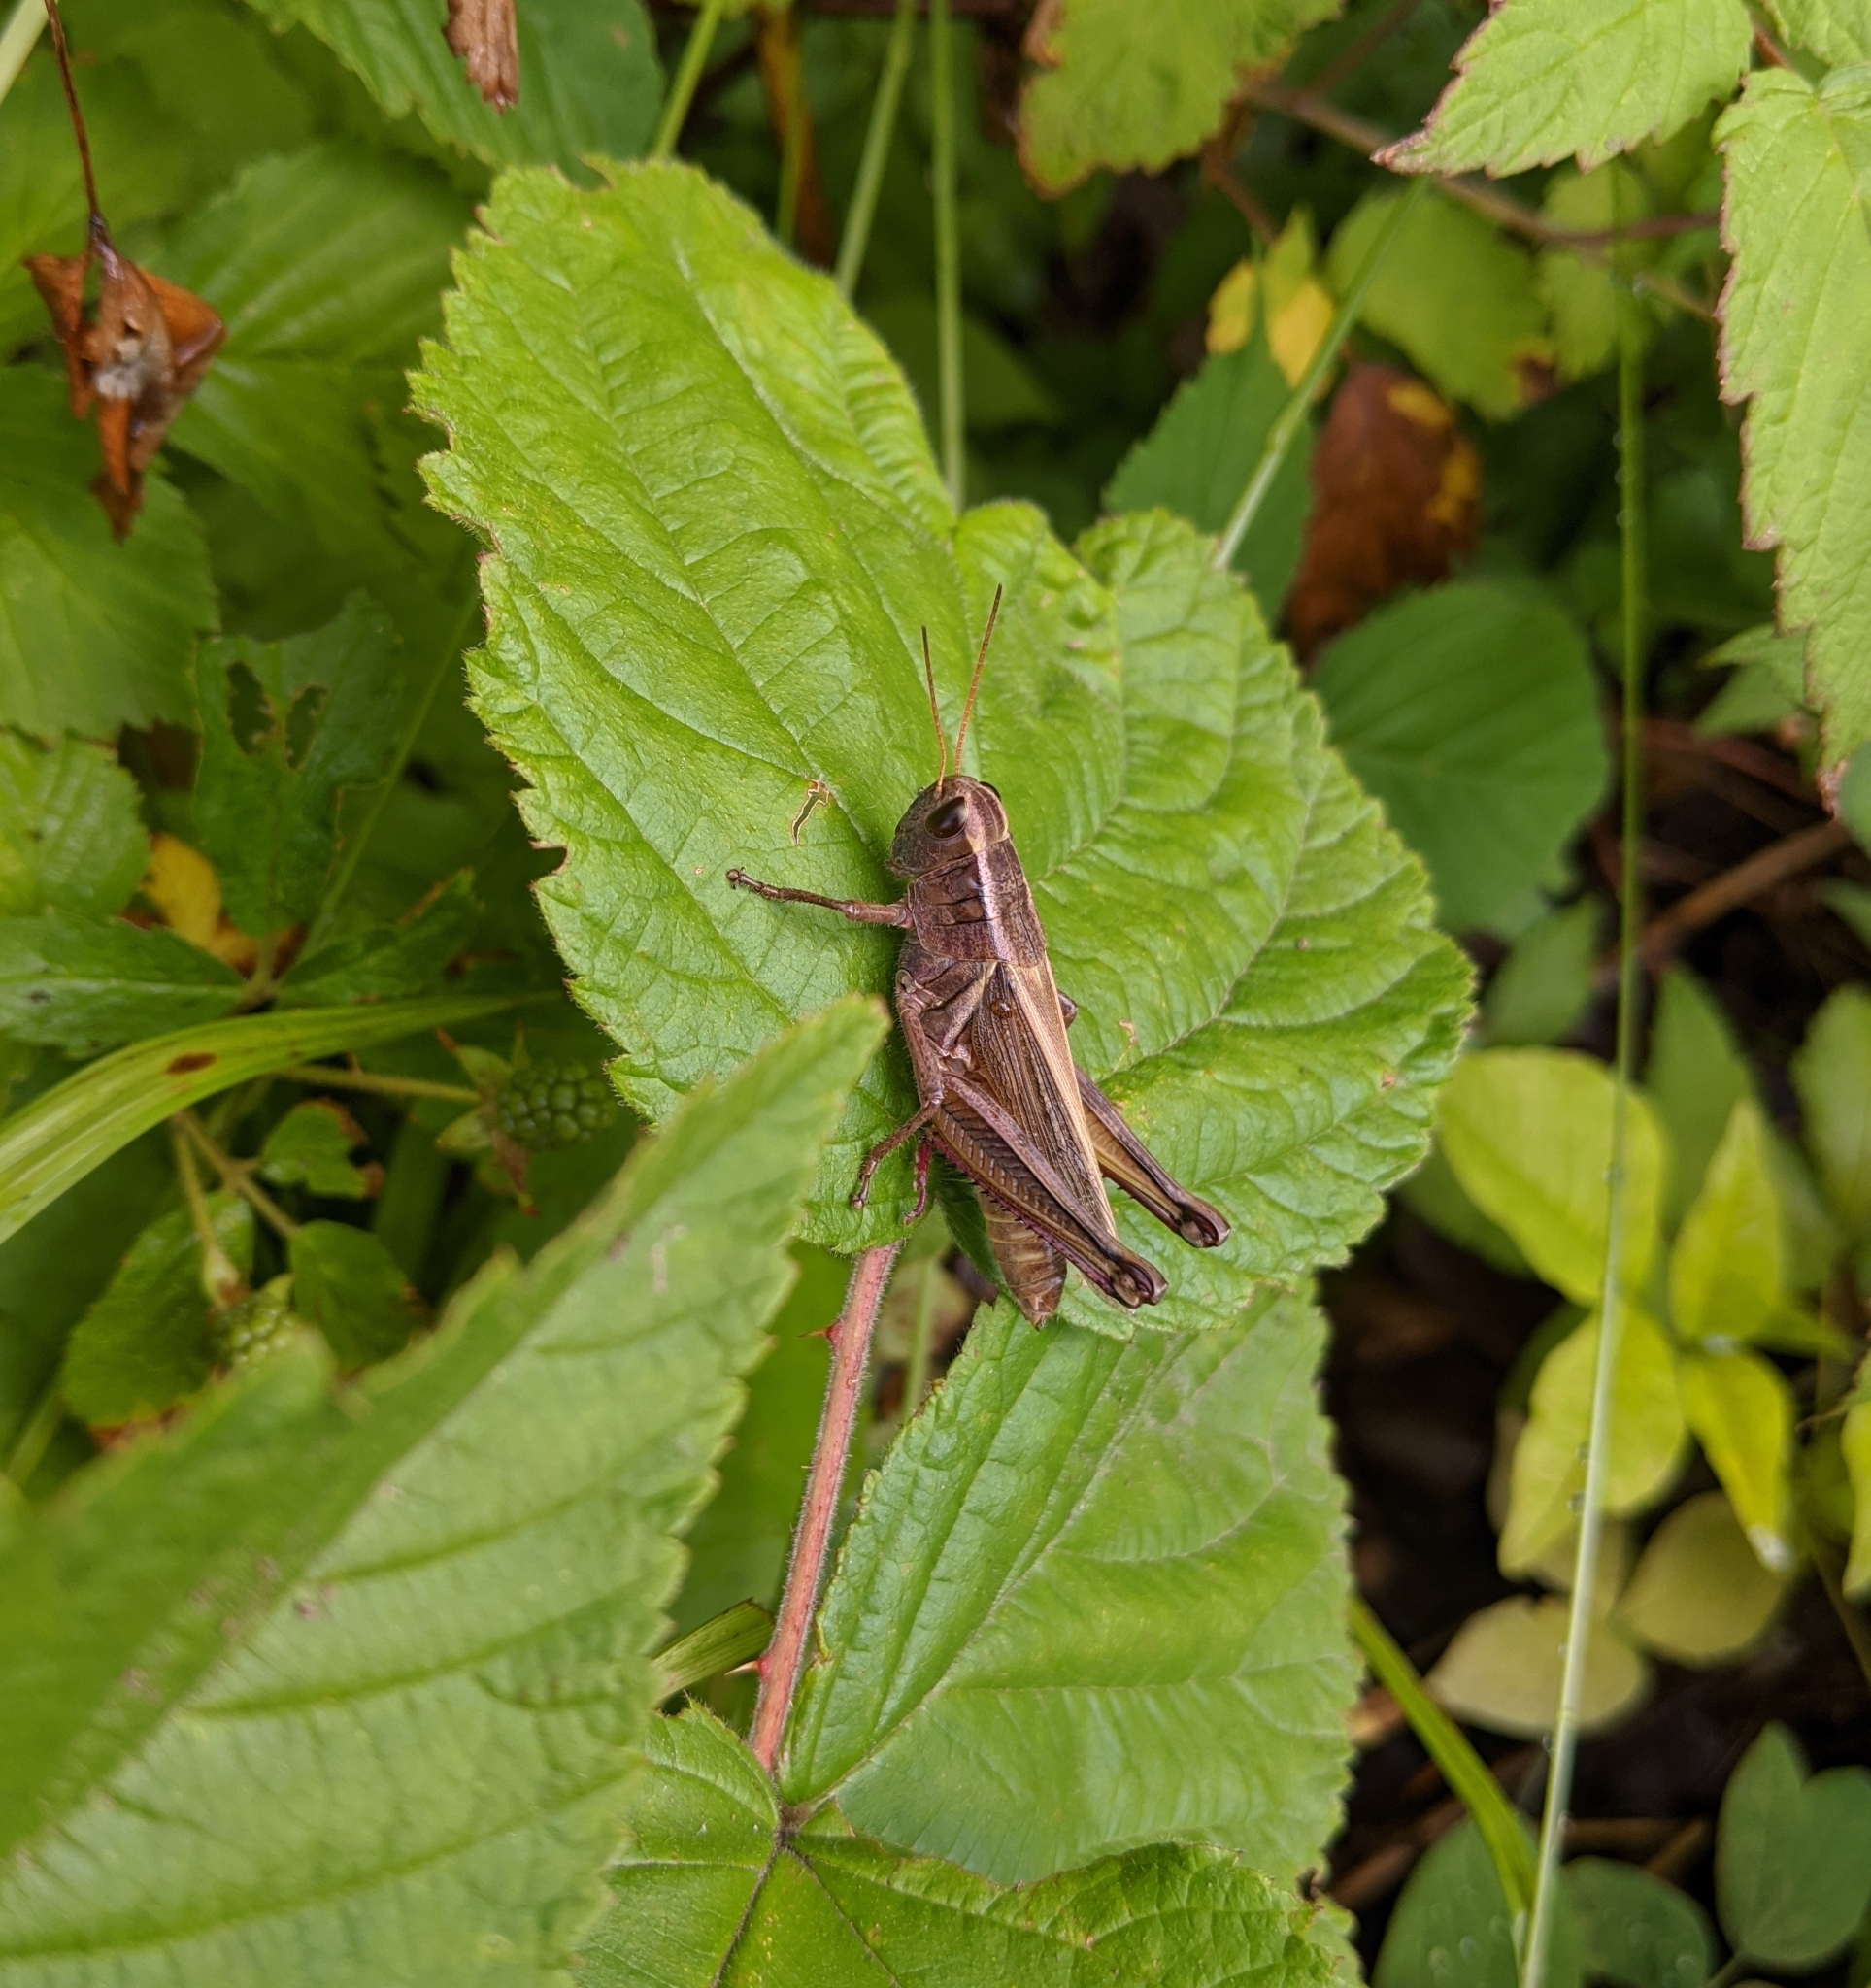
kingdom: Animalia
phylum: Arthropoda
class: Insecta
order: Orthoptera
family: Acrididae
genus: Melanoplus
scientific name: Melanoplus bivittatus
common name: Two-striped grasshopper
